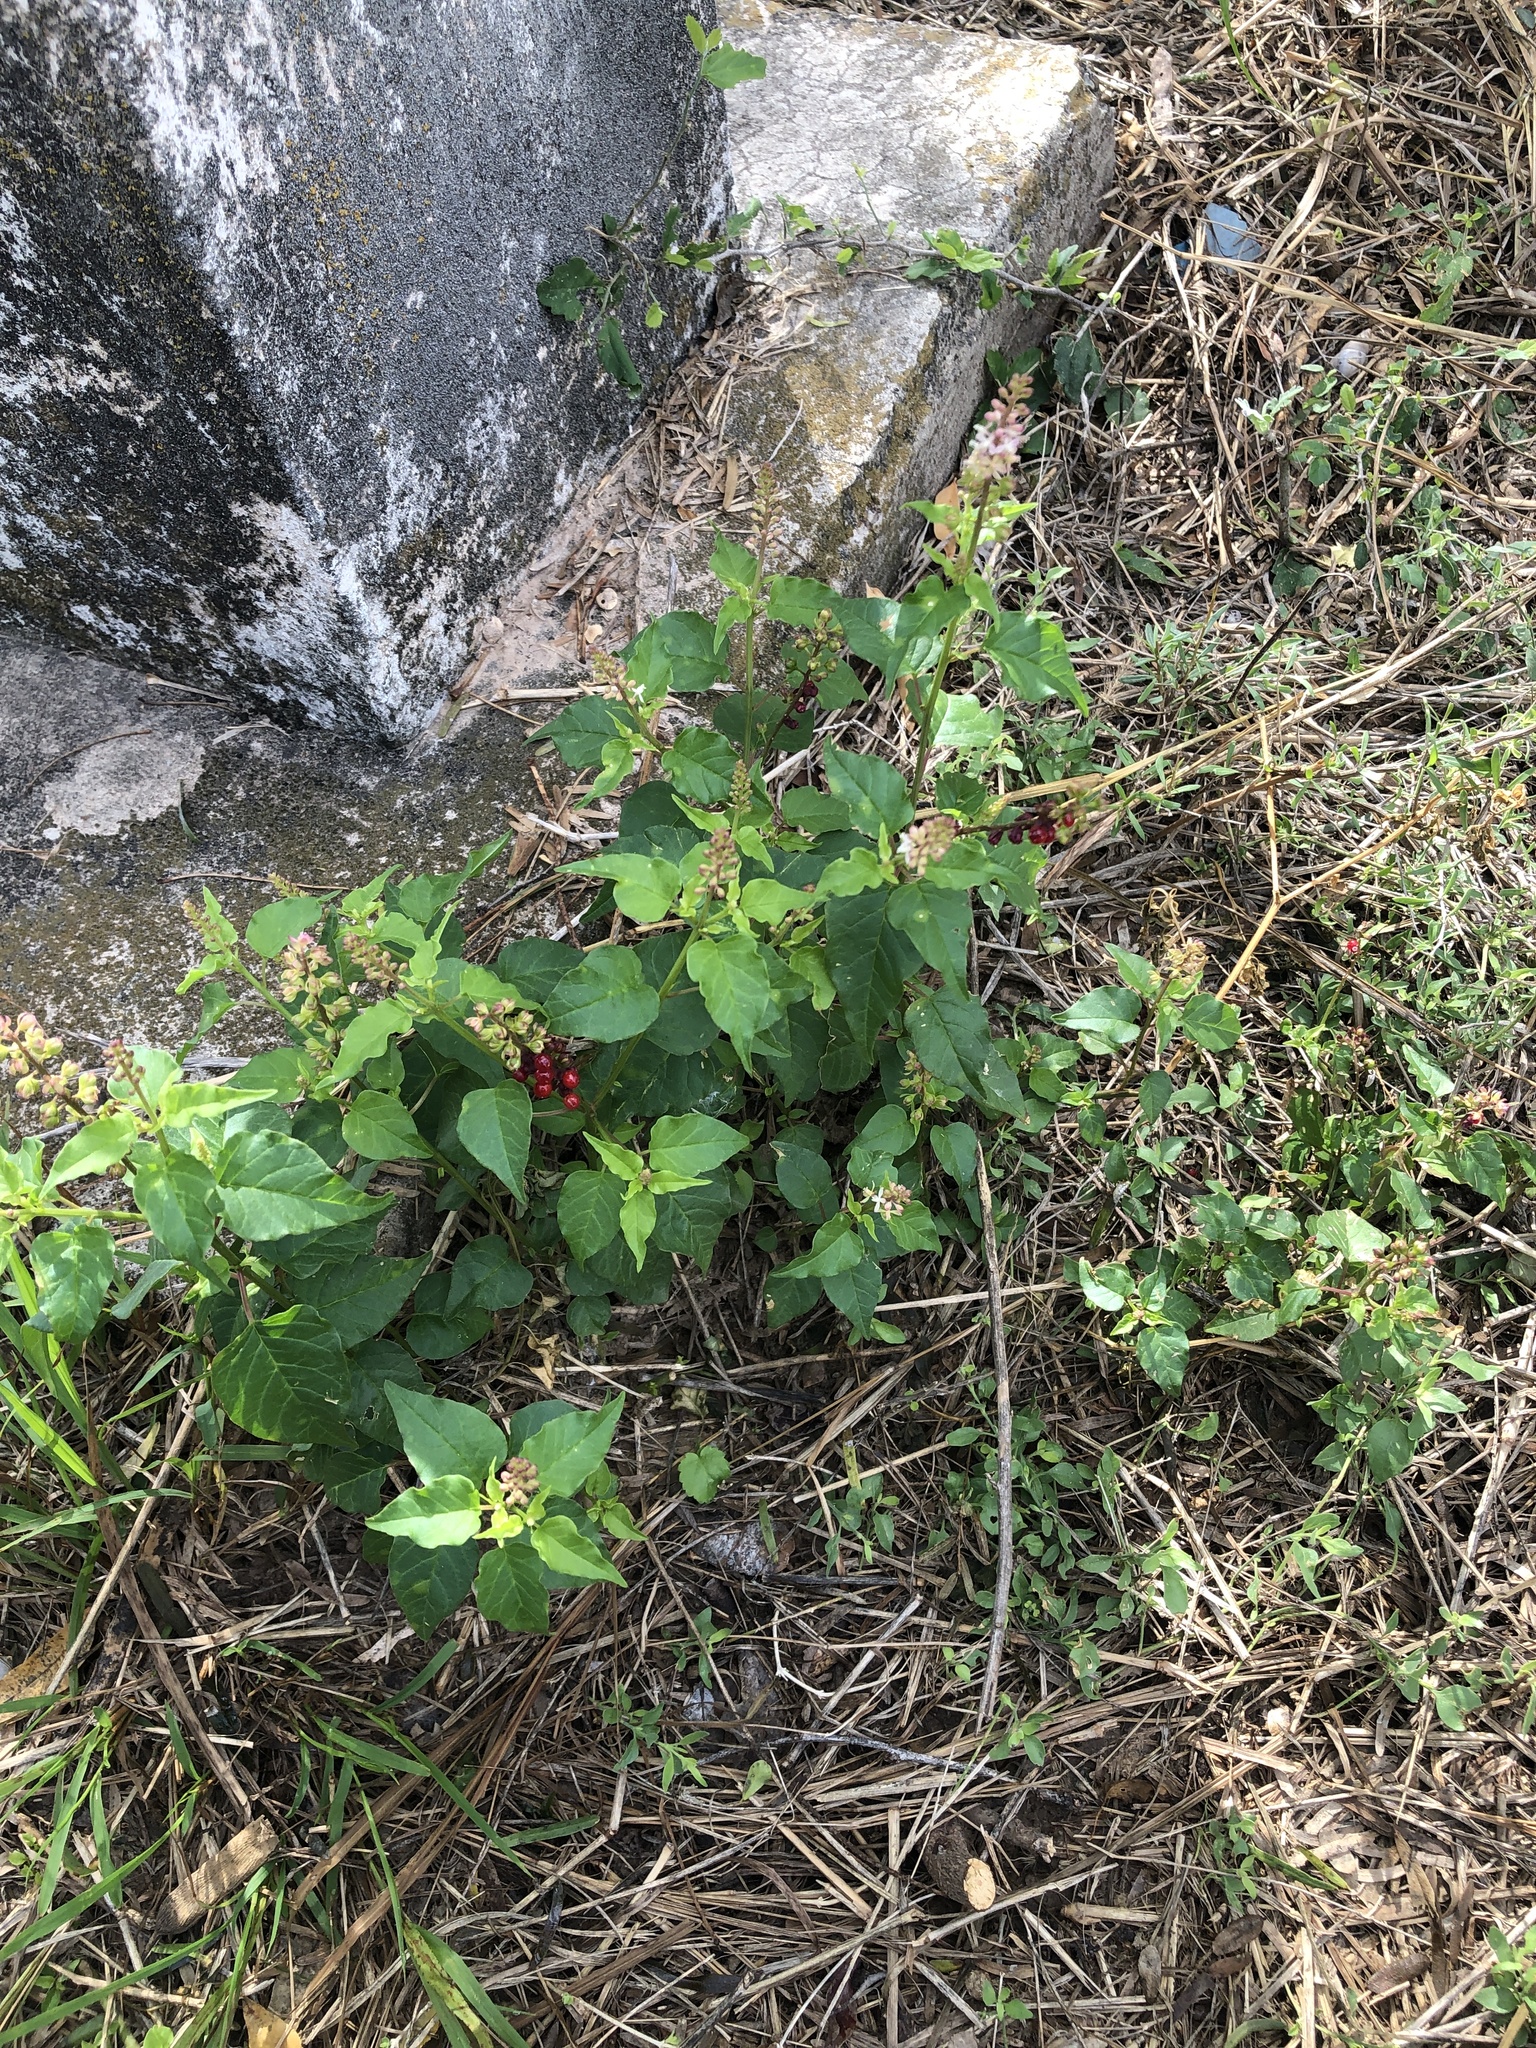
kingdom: Plantae
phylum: Tracheophyta
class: Magnoliopsida
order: Caryophyllales
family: Phytolaccaceae
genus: Rivina
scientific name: Rivina humilis
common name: Rougeplant
